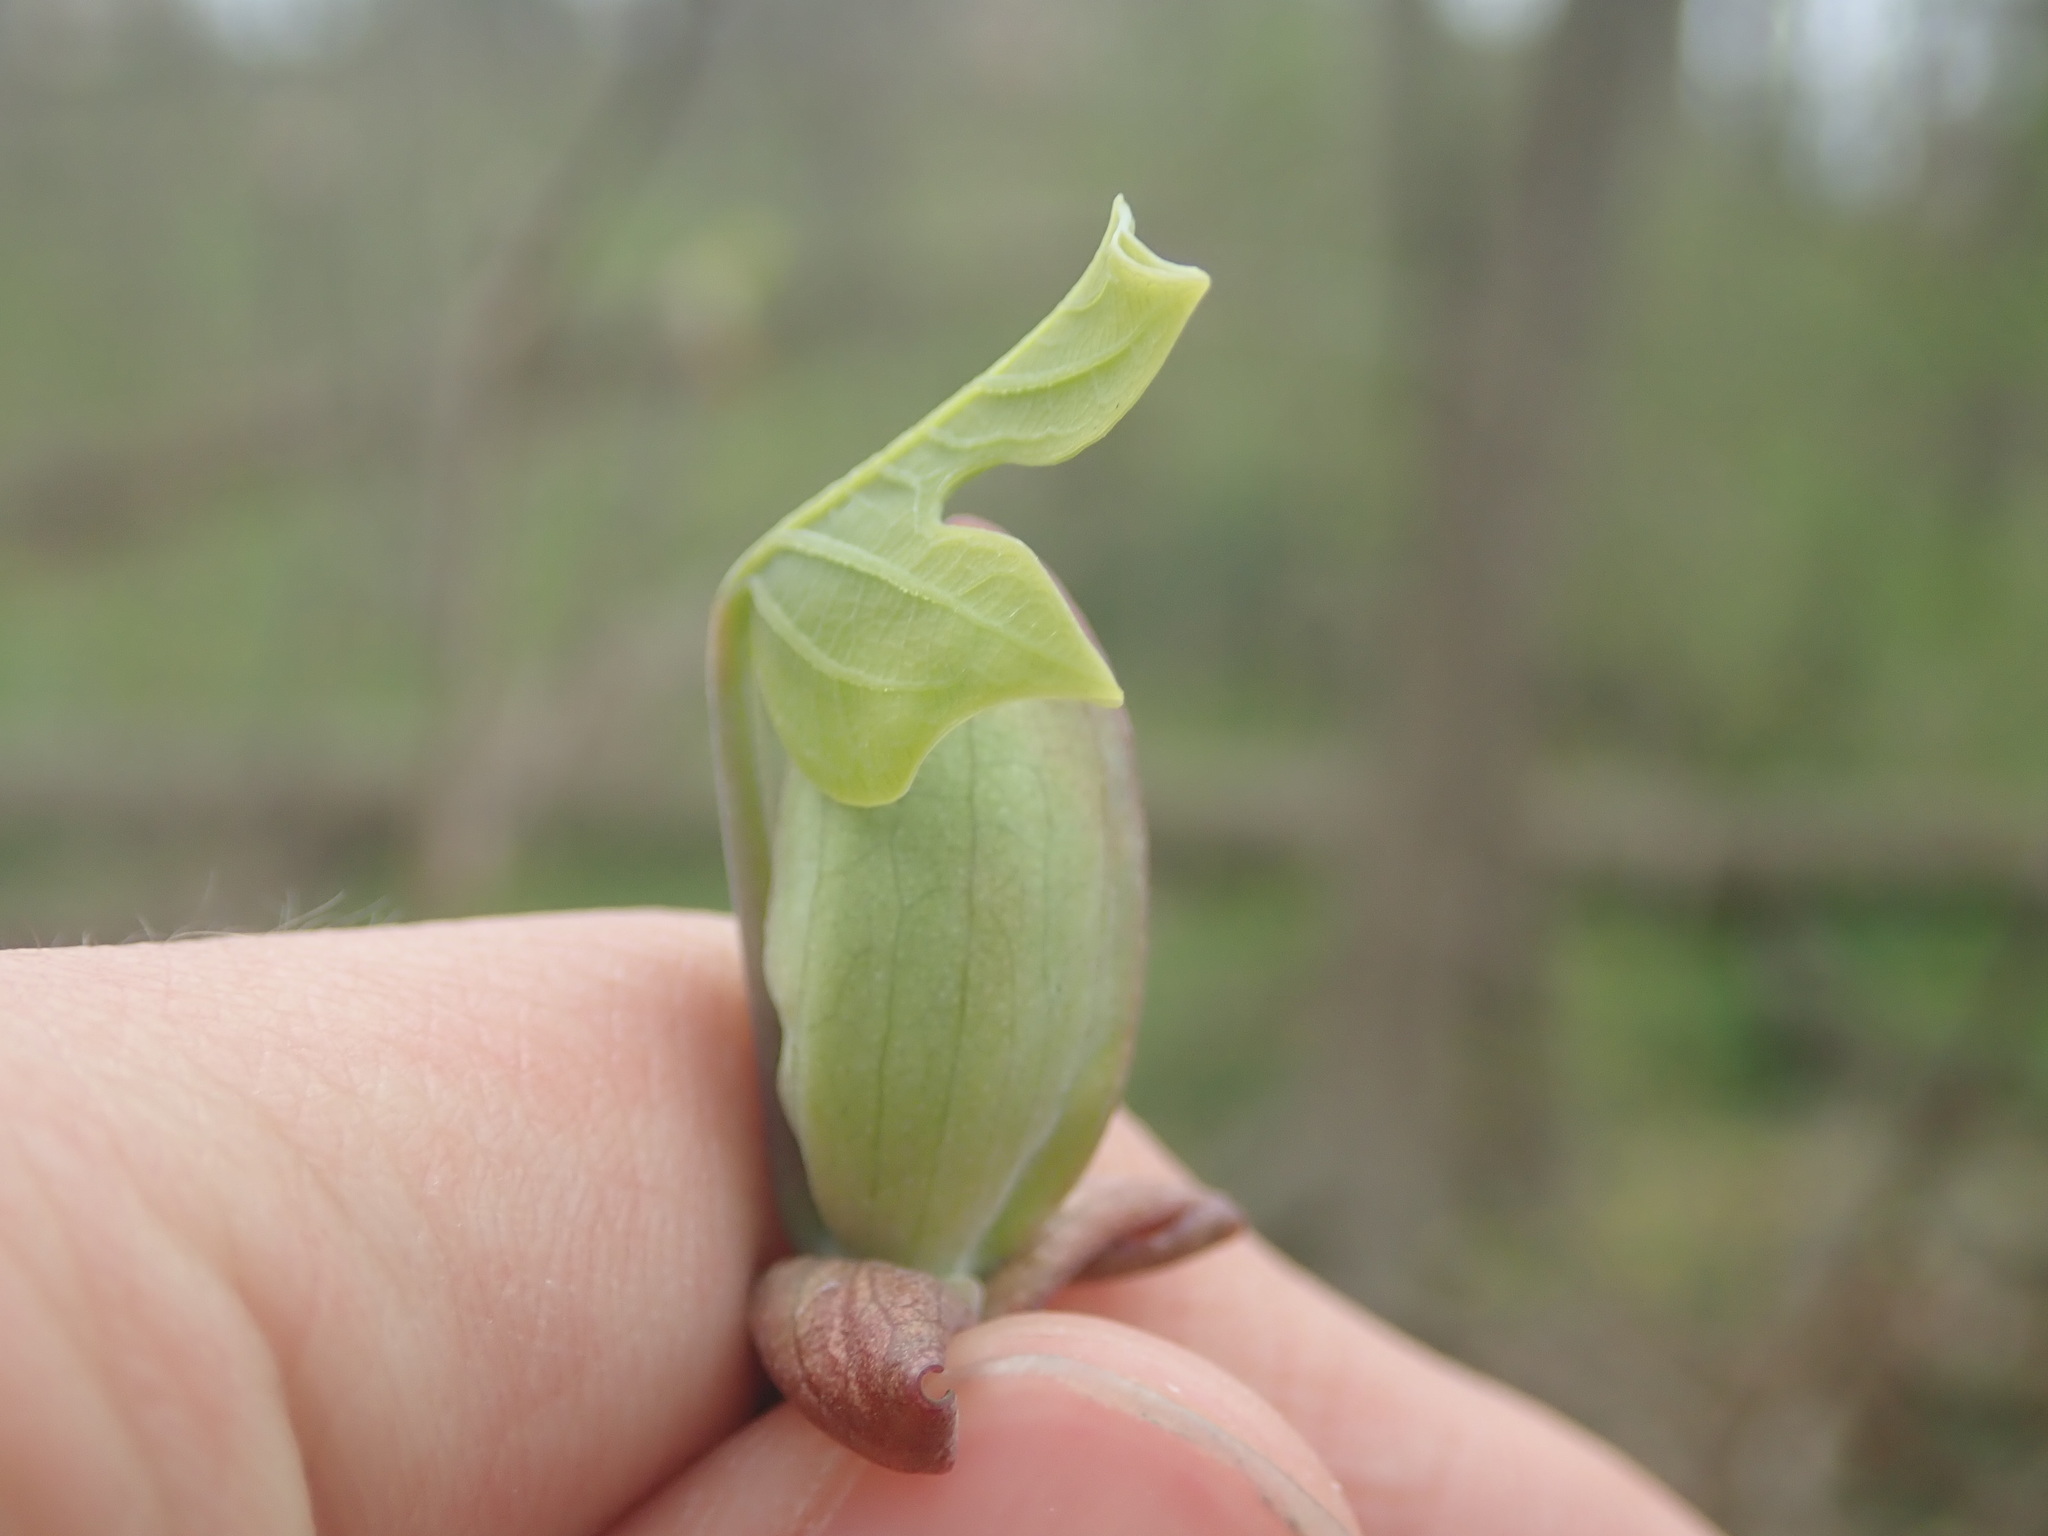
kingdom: Plantae
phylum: Tracheophyta
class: Magnoliopsida
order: Magnoliales
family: Magnoliaceae
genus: Liriodendron
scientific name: Liriodendron tulipifera
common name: Tulip tree
